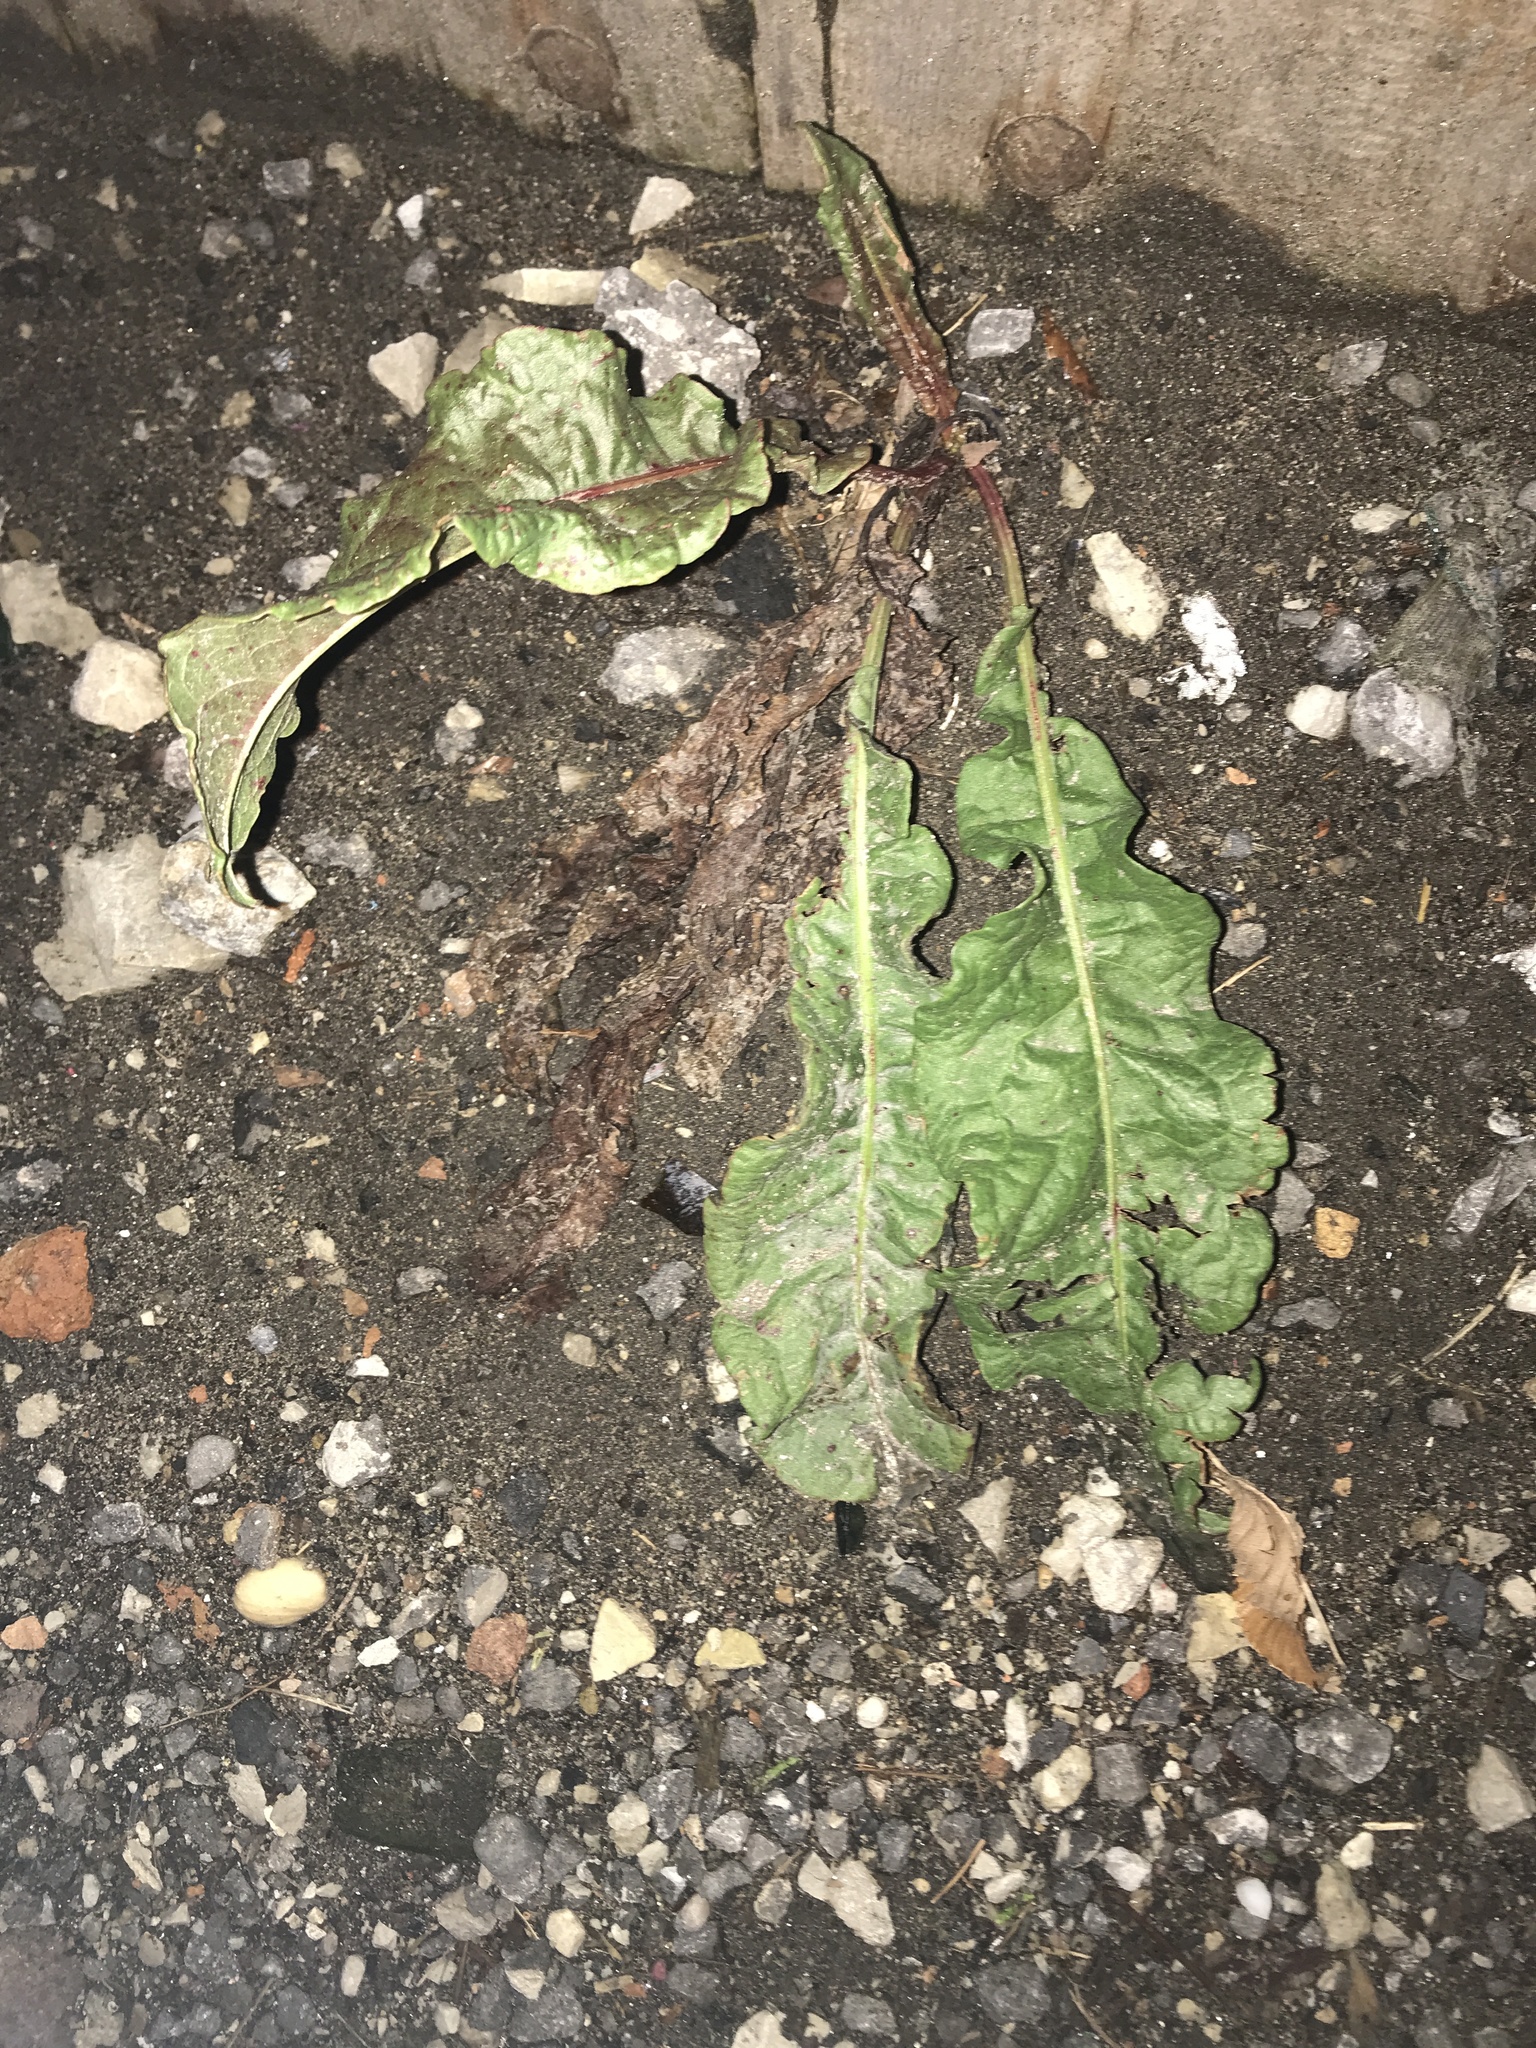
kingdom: Plantae
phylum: Tracheophyta
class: Magnoliopsida
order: Caryophyllales
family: Polygonaceae
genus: Rumex
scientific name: Rumex crispus
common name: Curled dock
